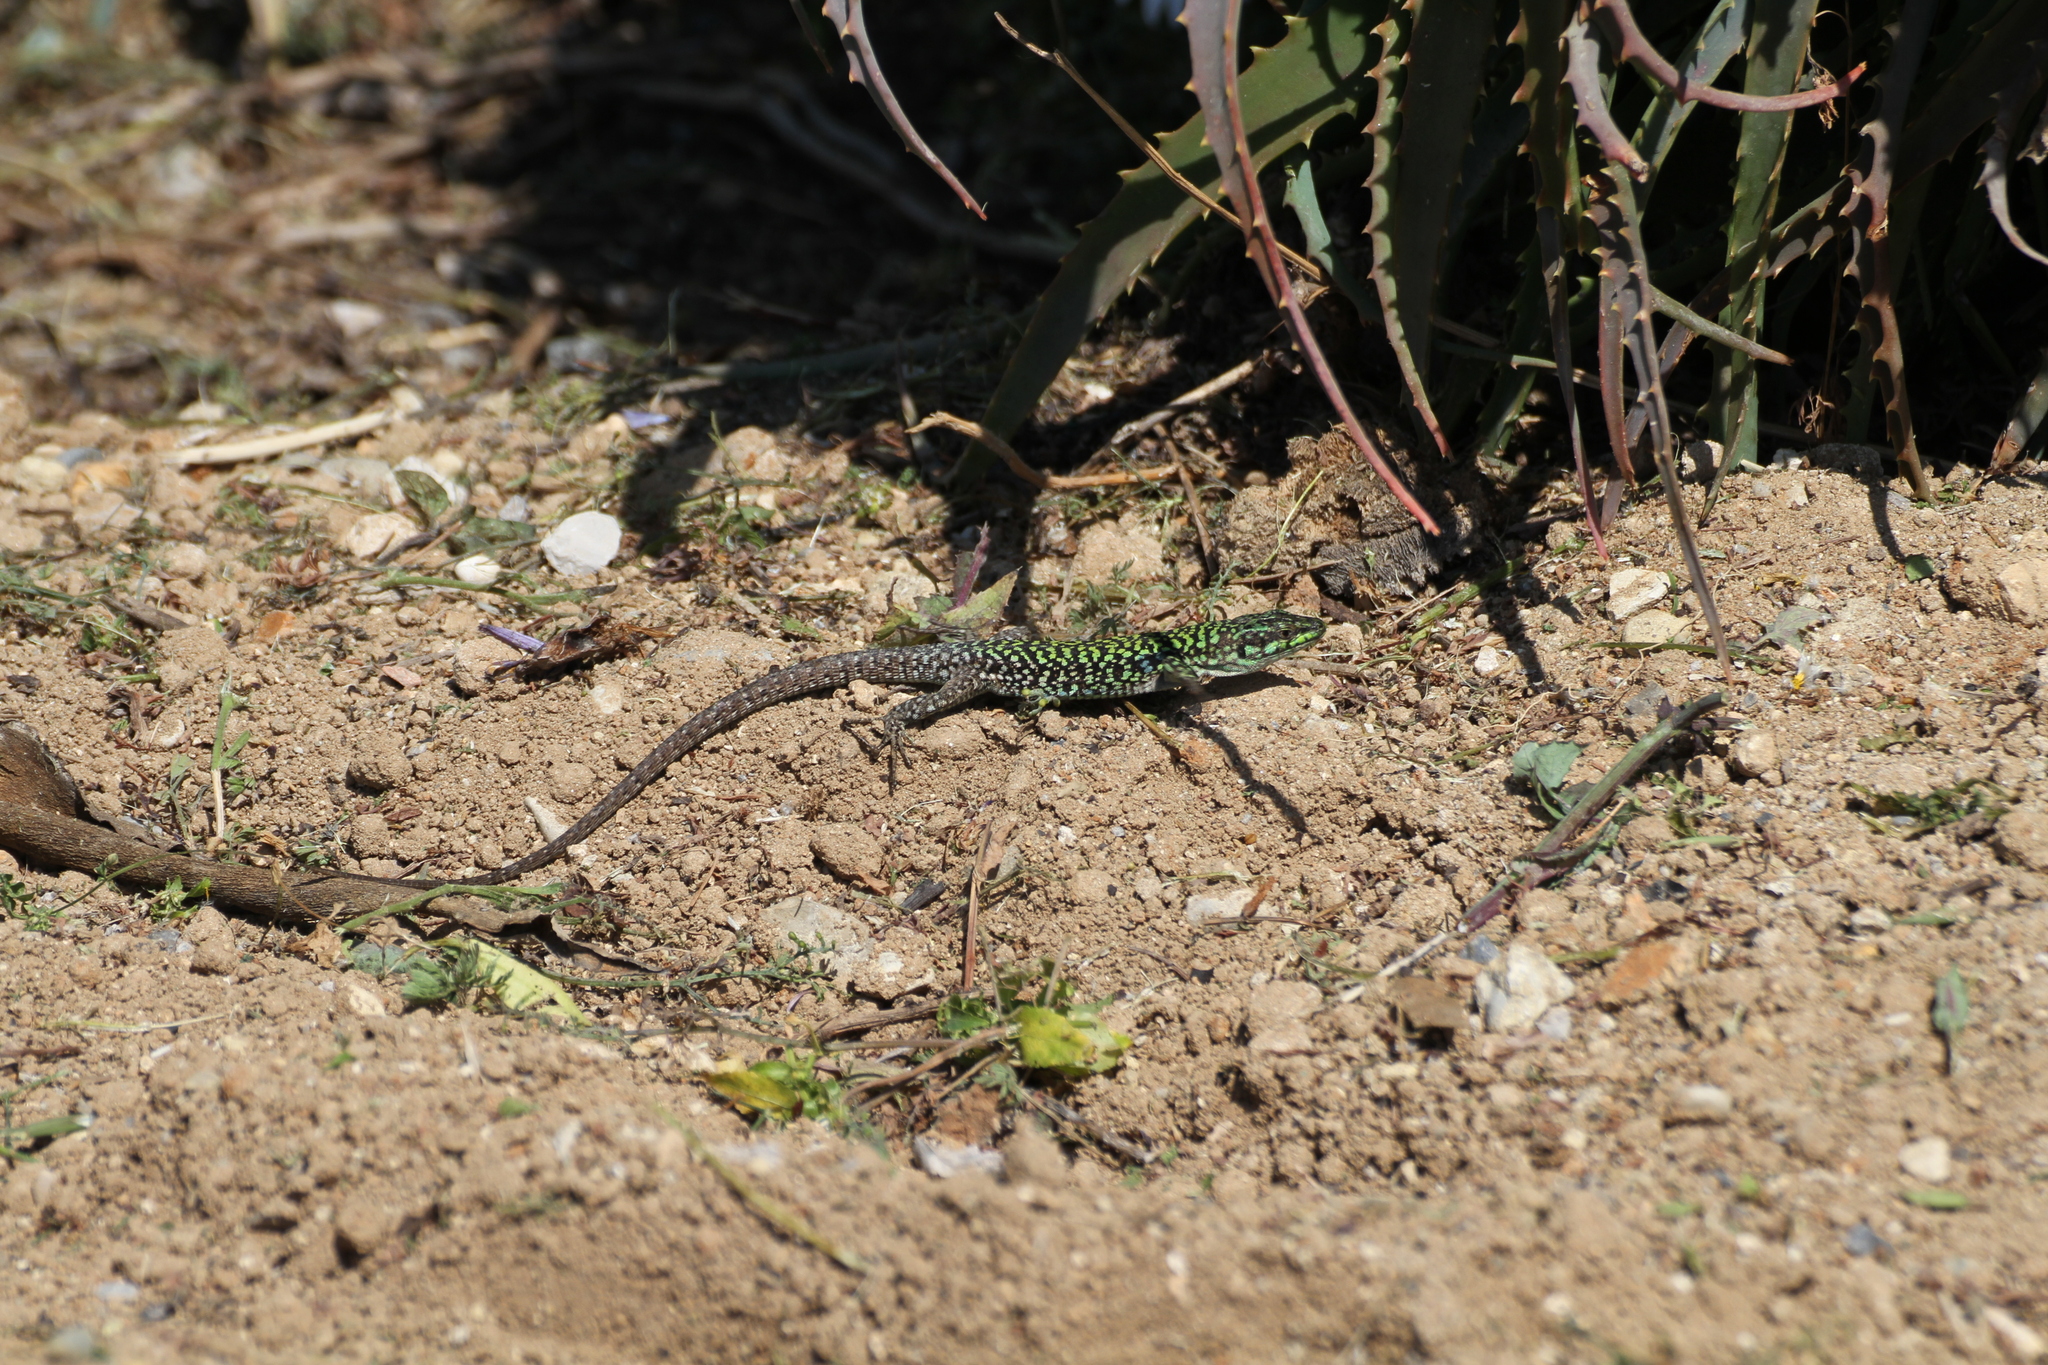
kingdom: Animalia
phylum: Chordata
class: Squamata
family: Lacertidae
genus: Podarcis
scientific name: Podarcis siculus
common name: Italian wall lizard
